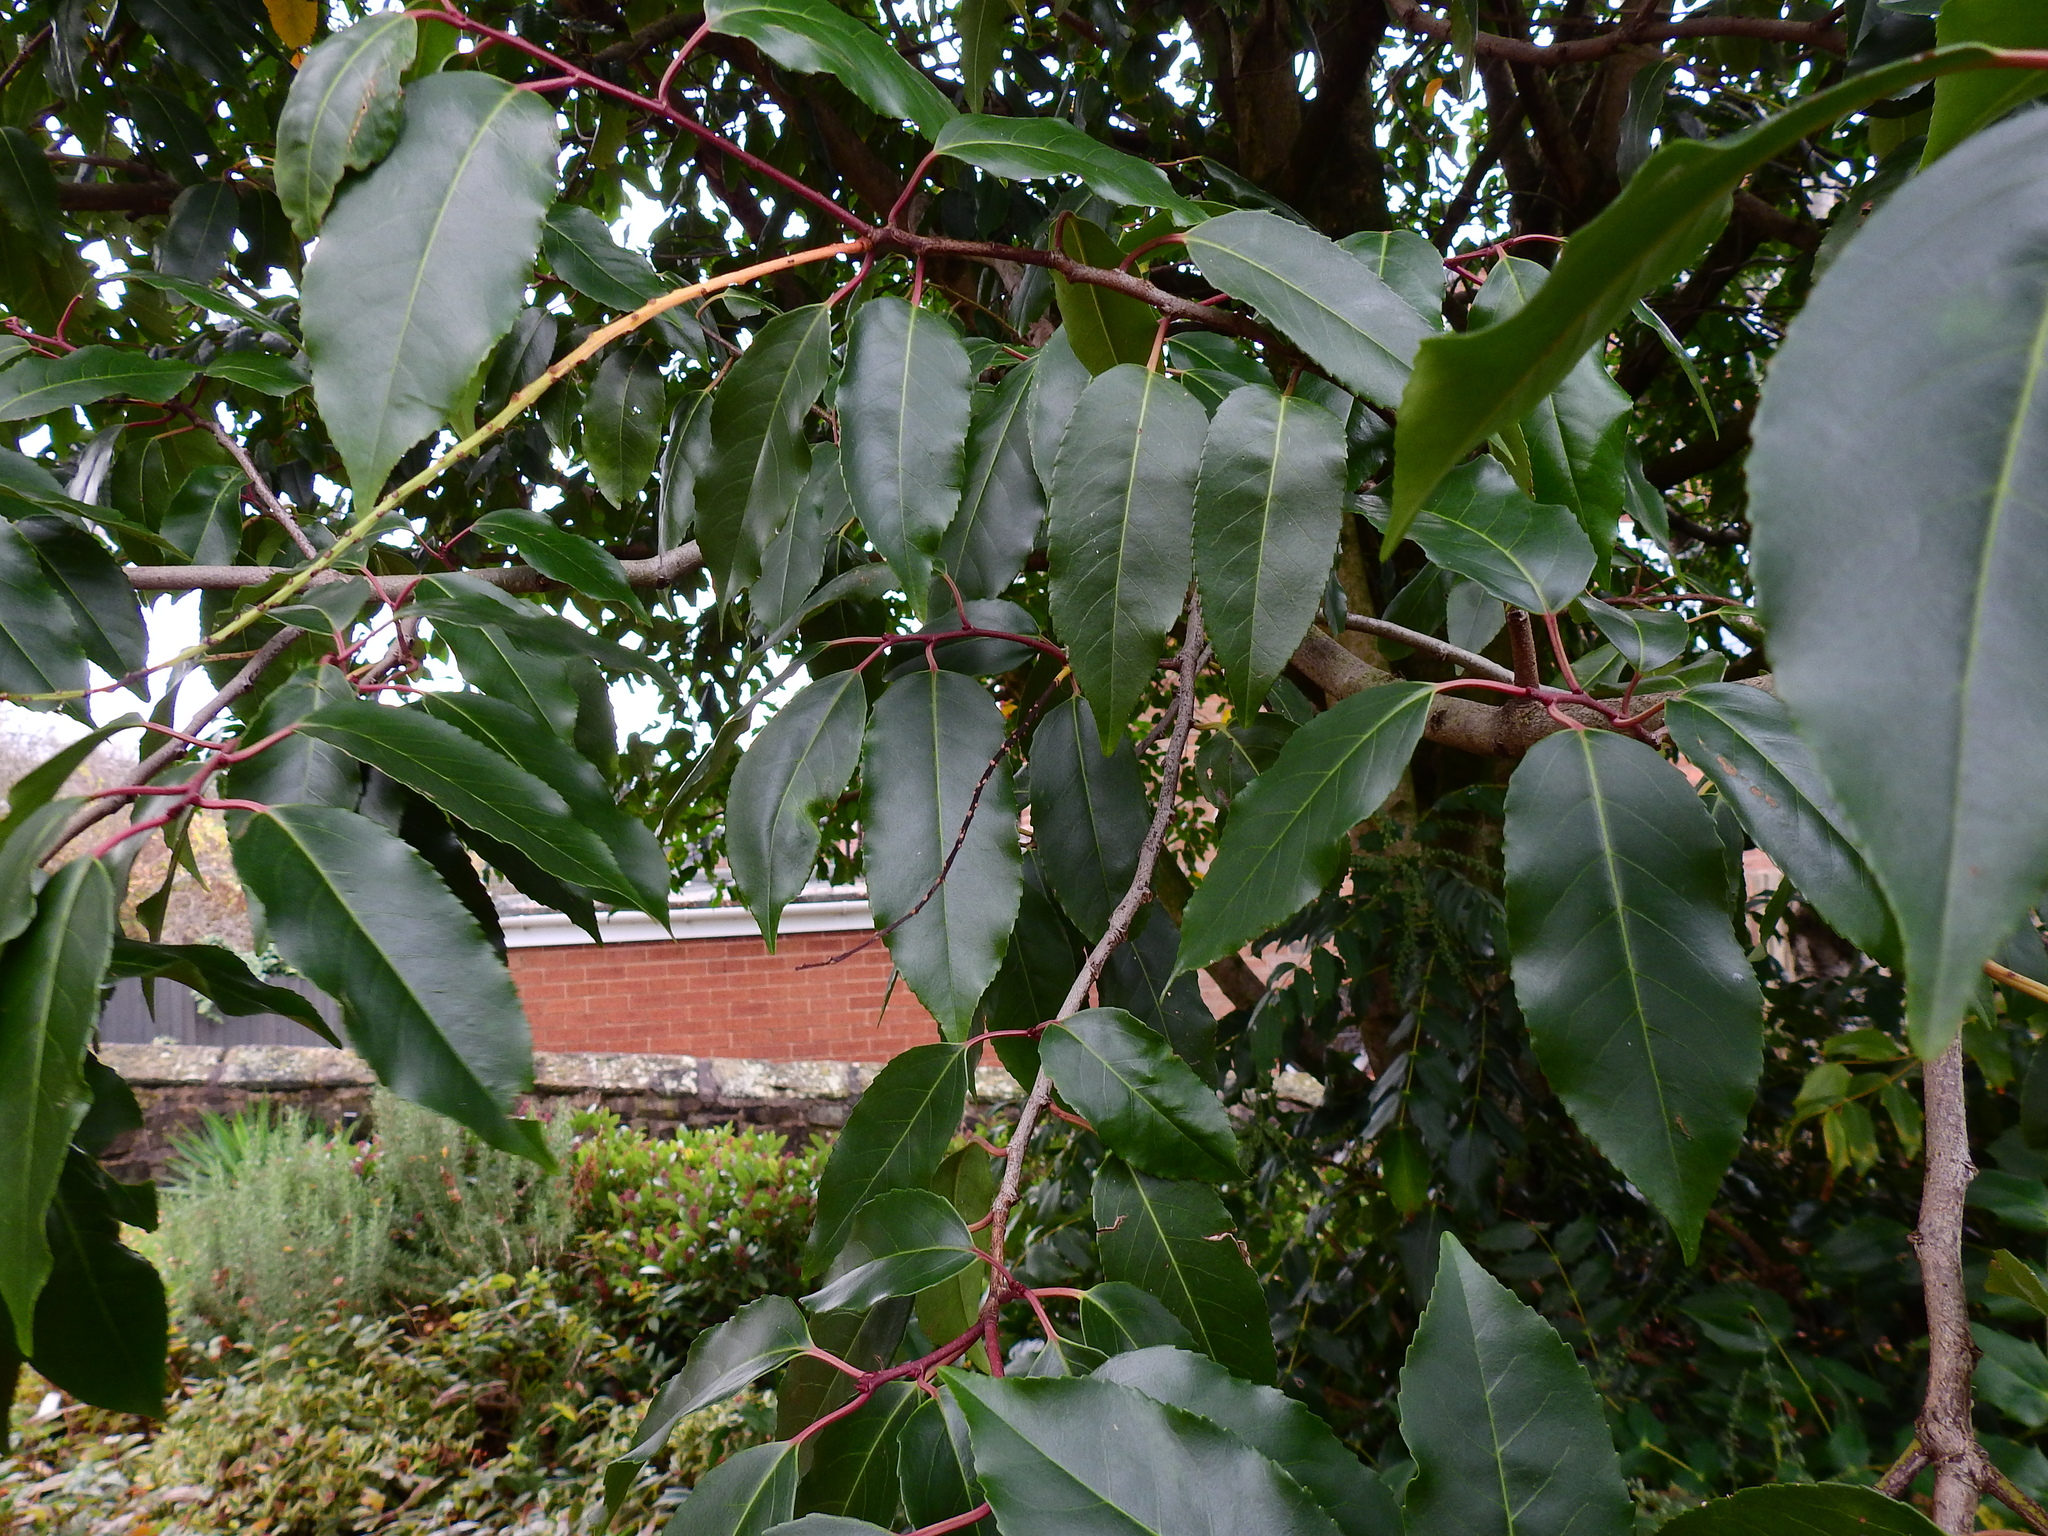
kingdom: Plantae
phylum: Tracheophyta
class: Magnoliopsida
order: Rosales
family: Rosaceae
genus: Prunus
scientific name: Prunus lusitanica
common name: Portugal laurel
